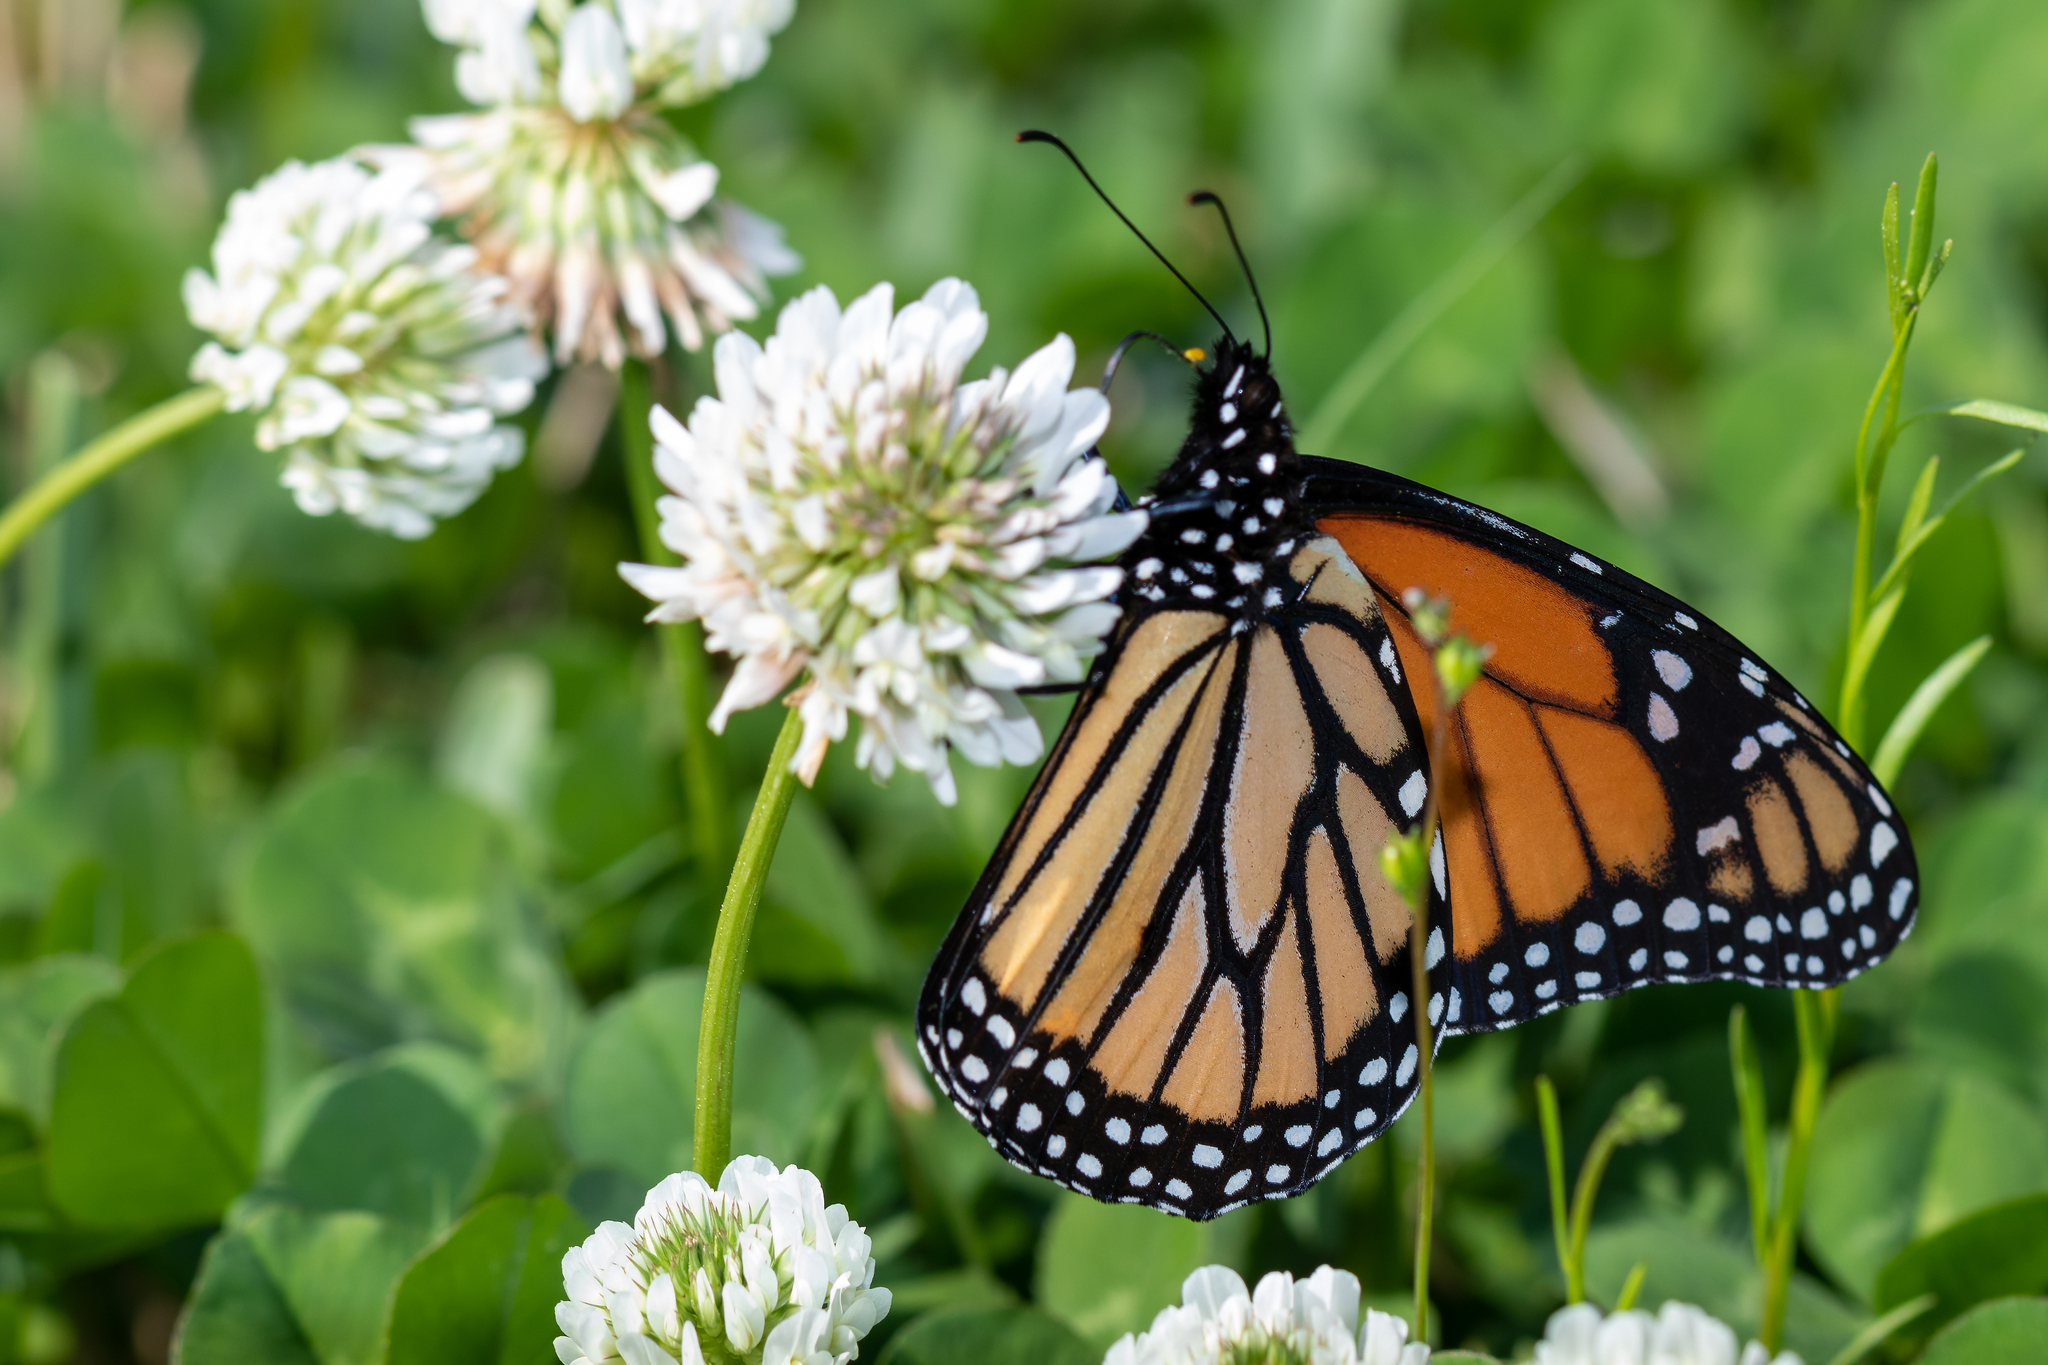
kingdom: Animalia
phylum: Arthropoda
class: Insecta
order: Lepidoptera
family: Nymphalidae
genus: Danaus
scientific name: Danaus plexippus
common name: Monarch
